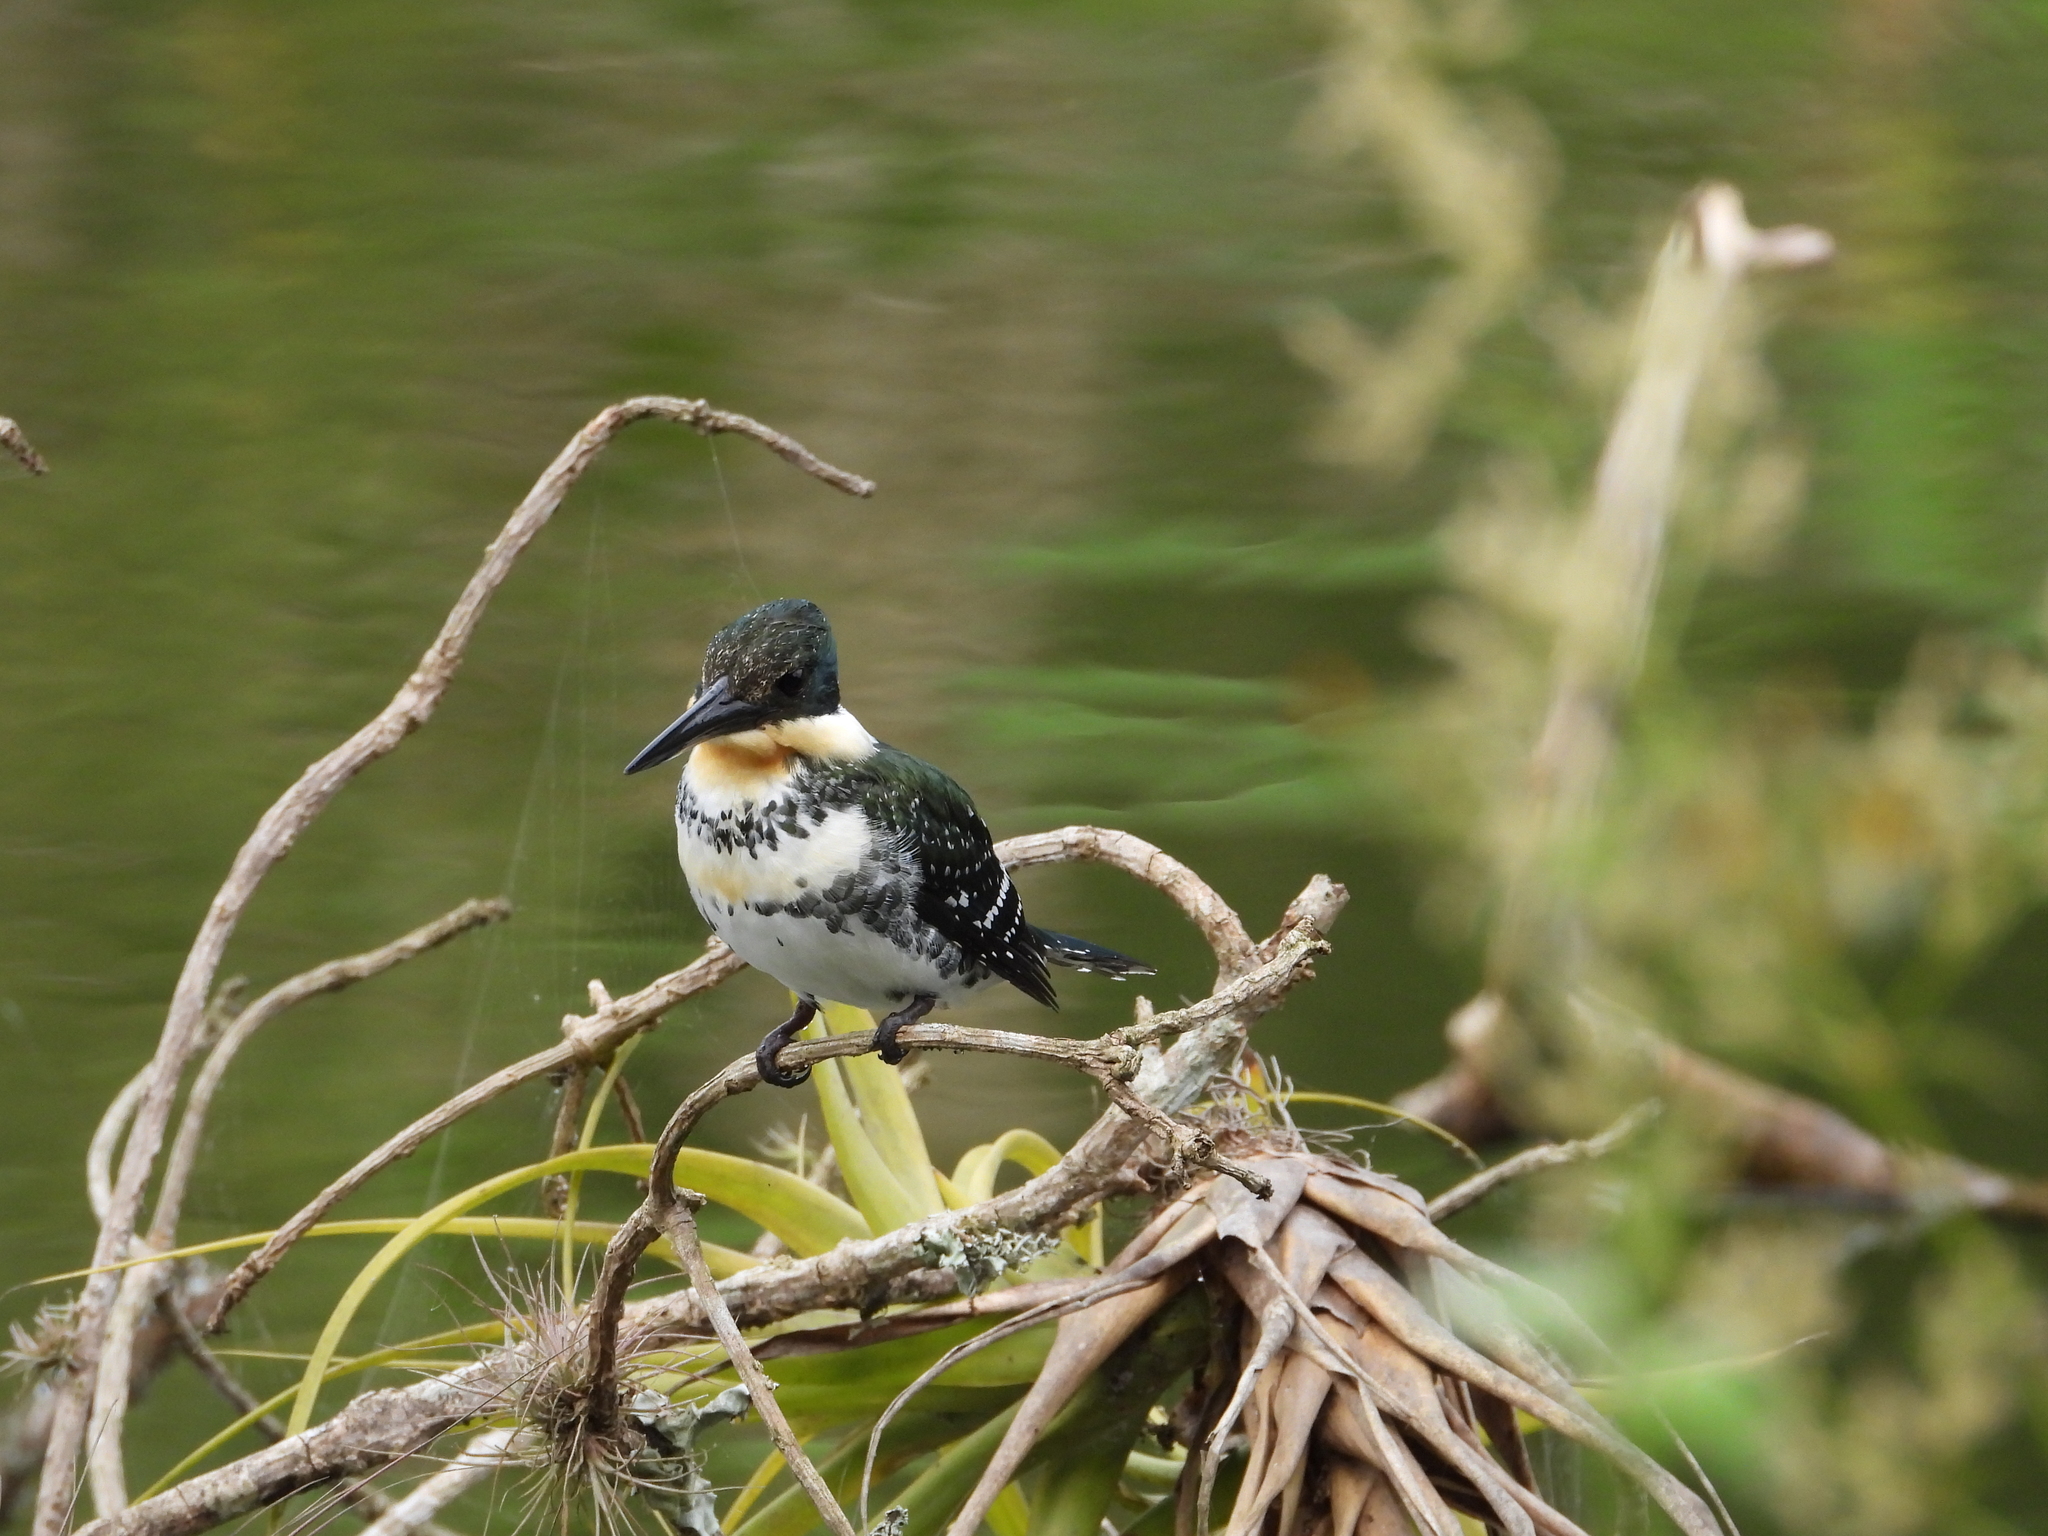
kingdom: Animalia
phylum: Chordata
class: Aves
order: Coraciiformes
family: Alcedinidae
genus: Chloroceryle
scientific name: Chloroceryle americana
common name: Green kingfisher
